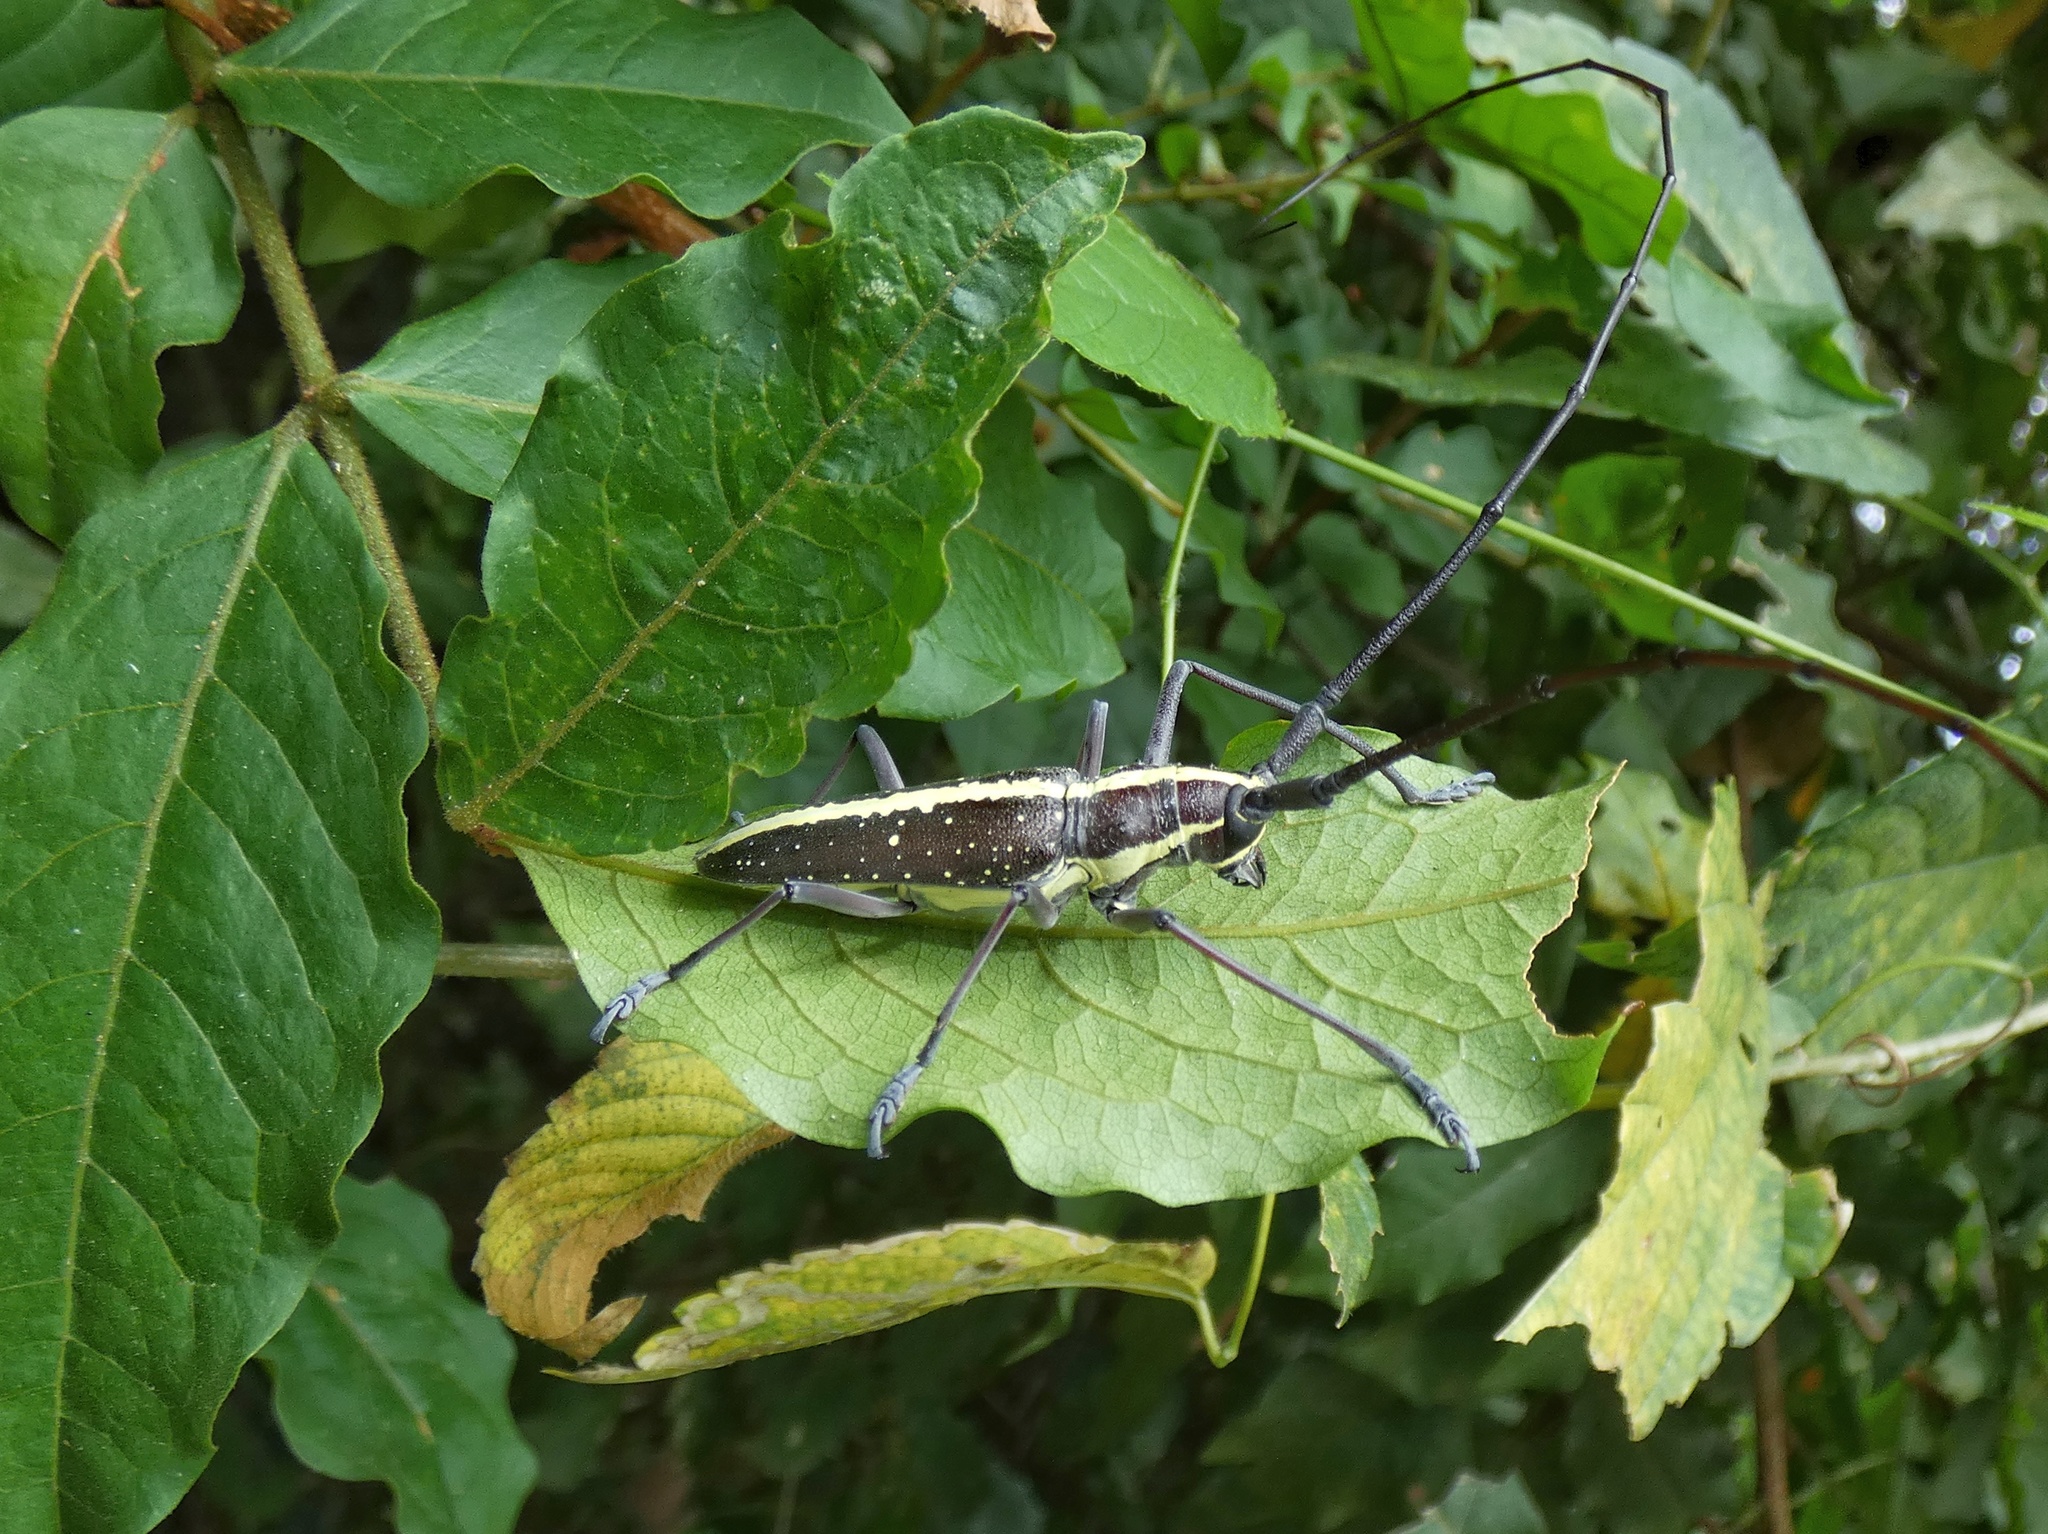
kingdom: Animalia
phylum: Arthropoda
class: Insecta
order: Coleoptera
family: Cerambycidae
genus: Taeniotes
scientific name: Taeniotes scalatus
